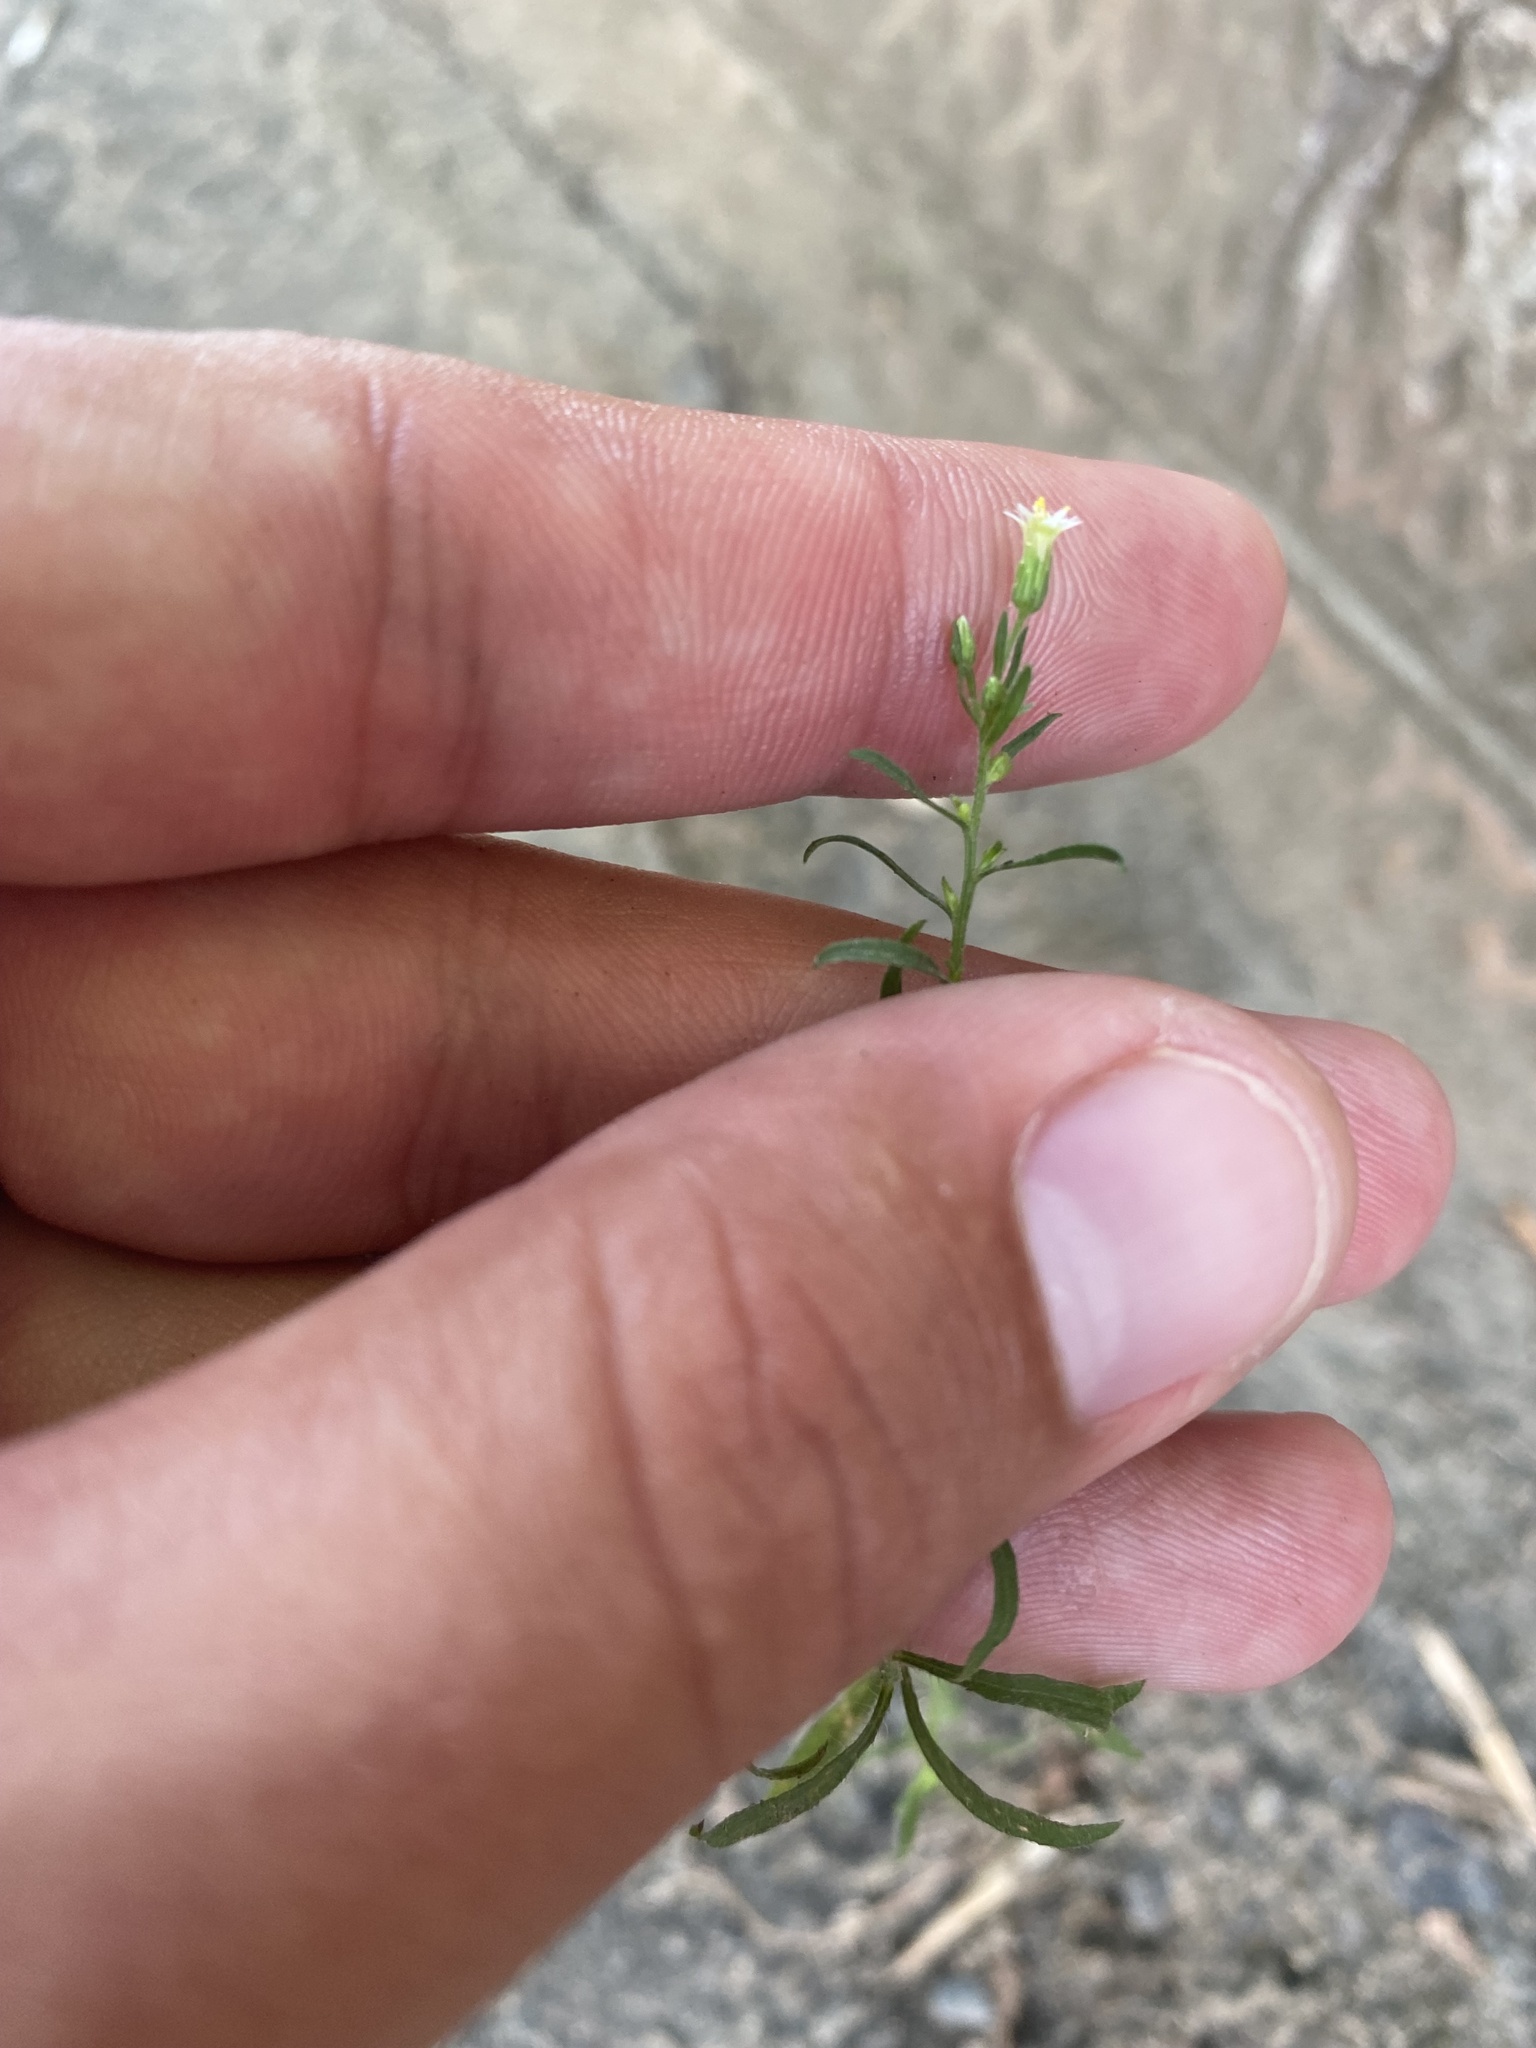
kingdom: Plantae
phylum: Tracheophyta
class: Magnoliopsida
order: Asterales
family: Asteraceae
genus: Erigeron
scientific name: Erigeron canadensis
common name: Canadian fleabane
